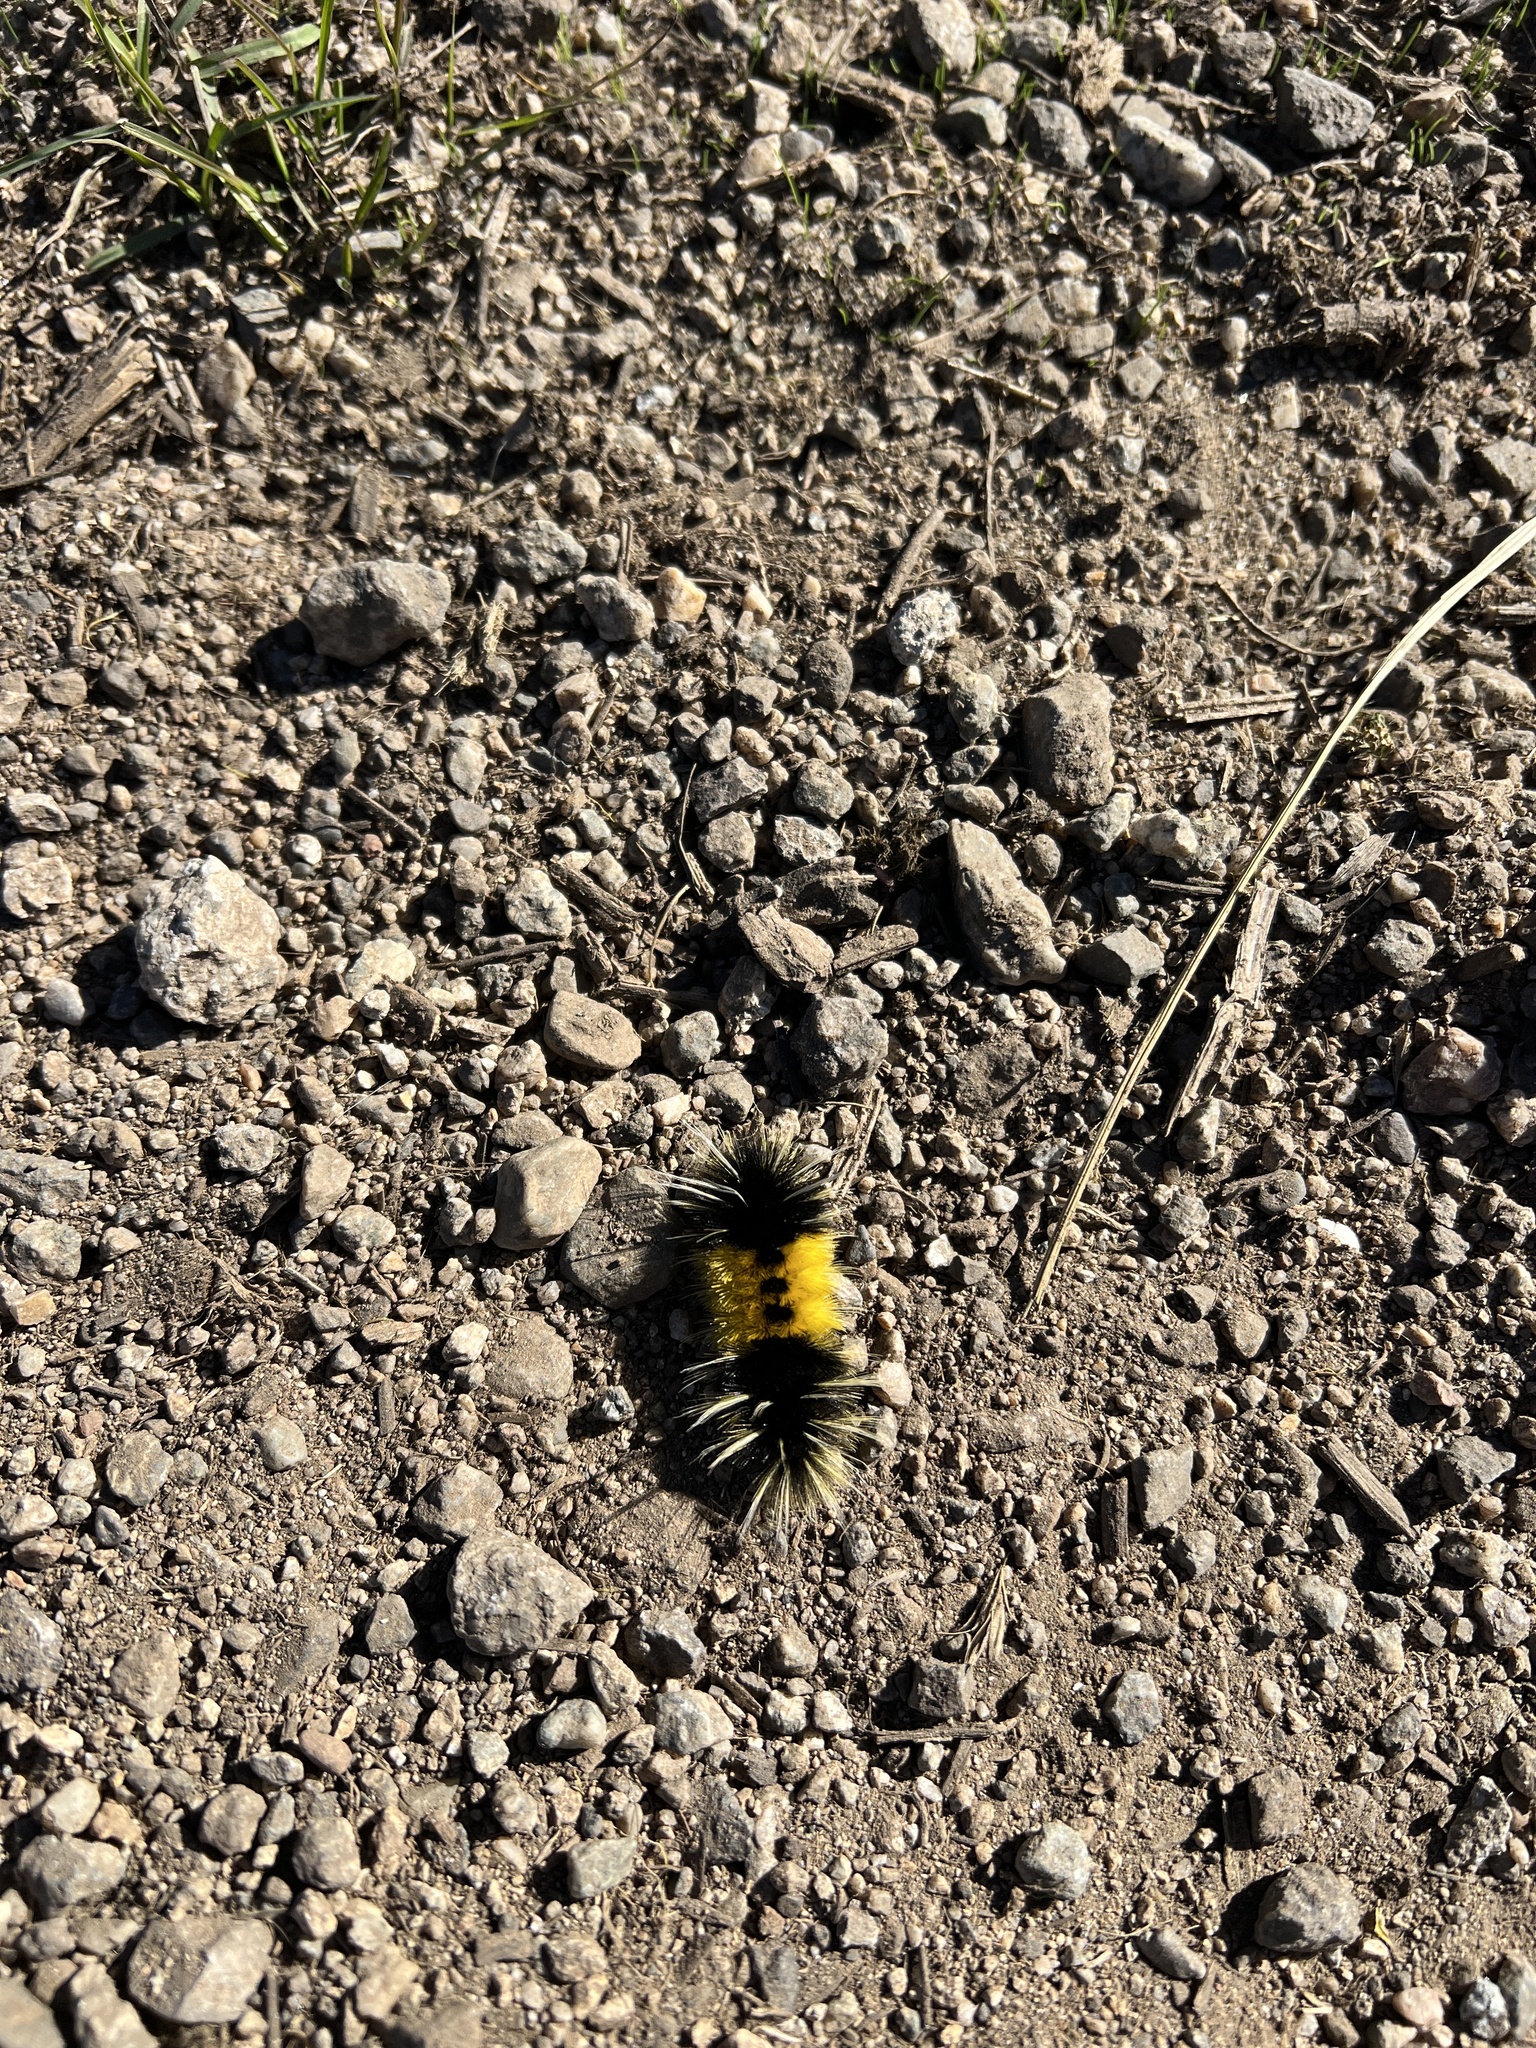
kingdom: Animalia
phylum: Arthropoda
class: Insecta
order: Lepidoptera
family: Erebidae
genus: Lophocampa
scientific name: Lophocampa maculata
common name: Spotted tussock moth
